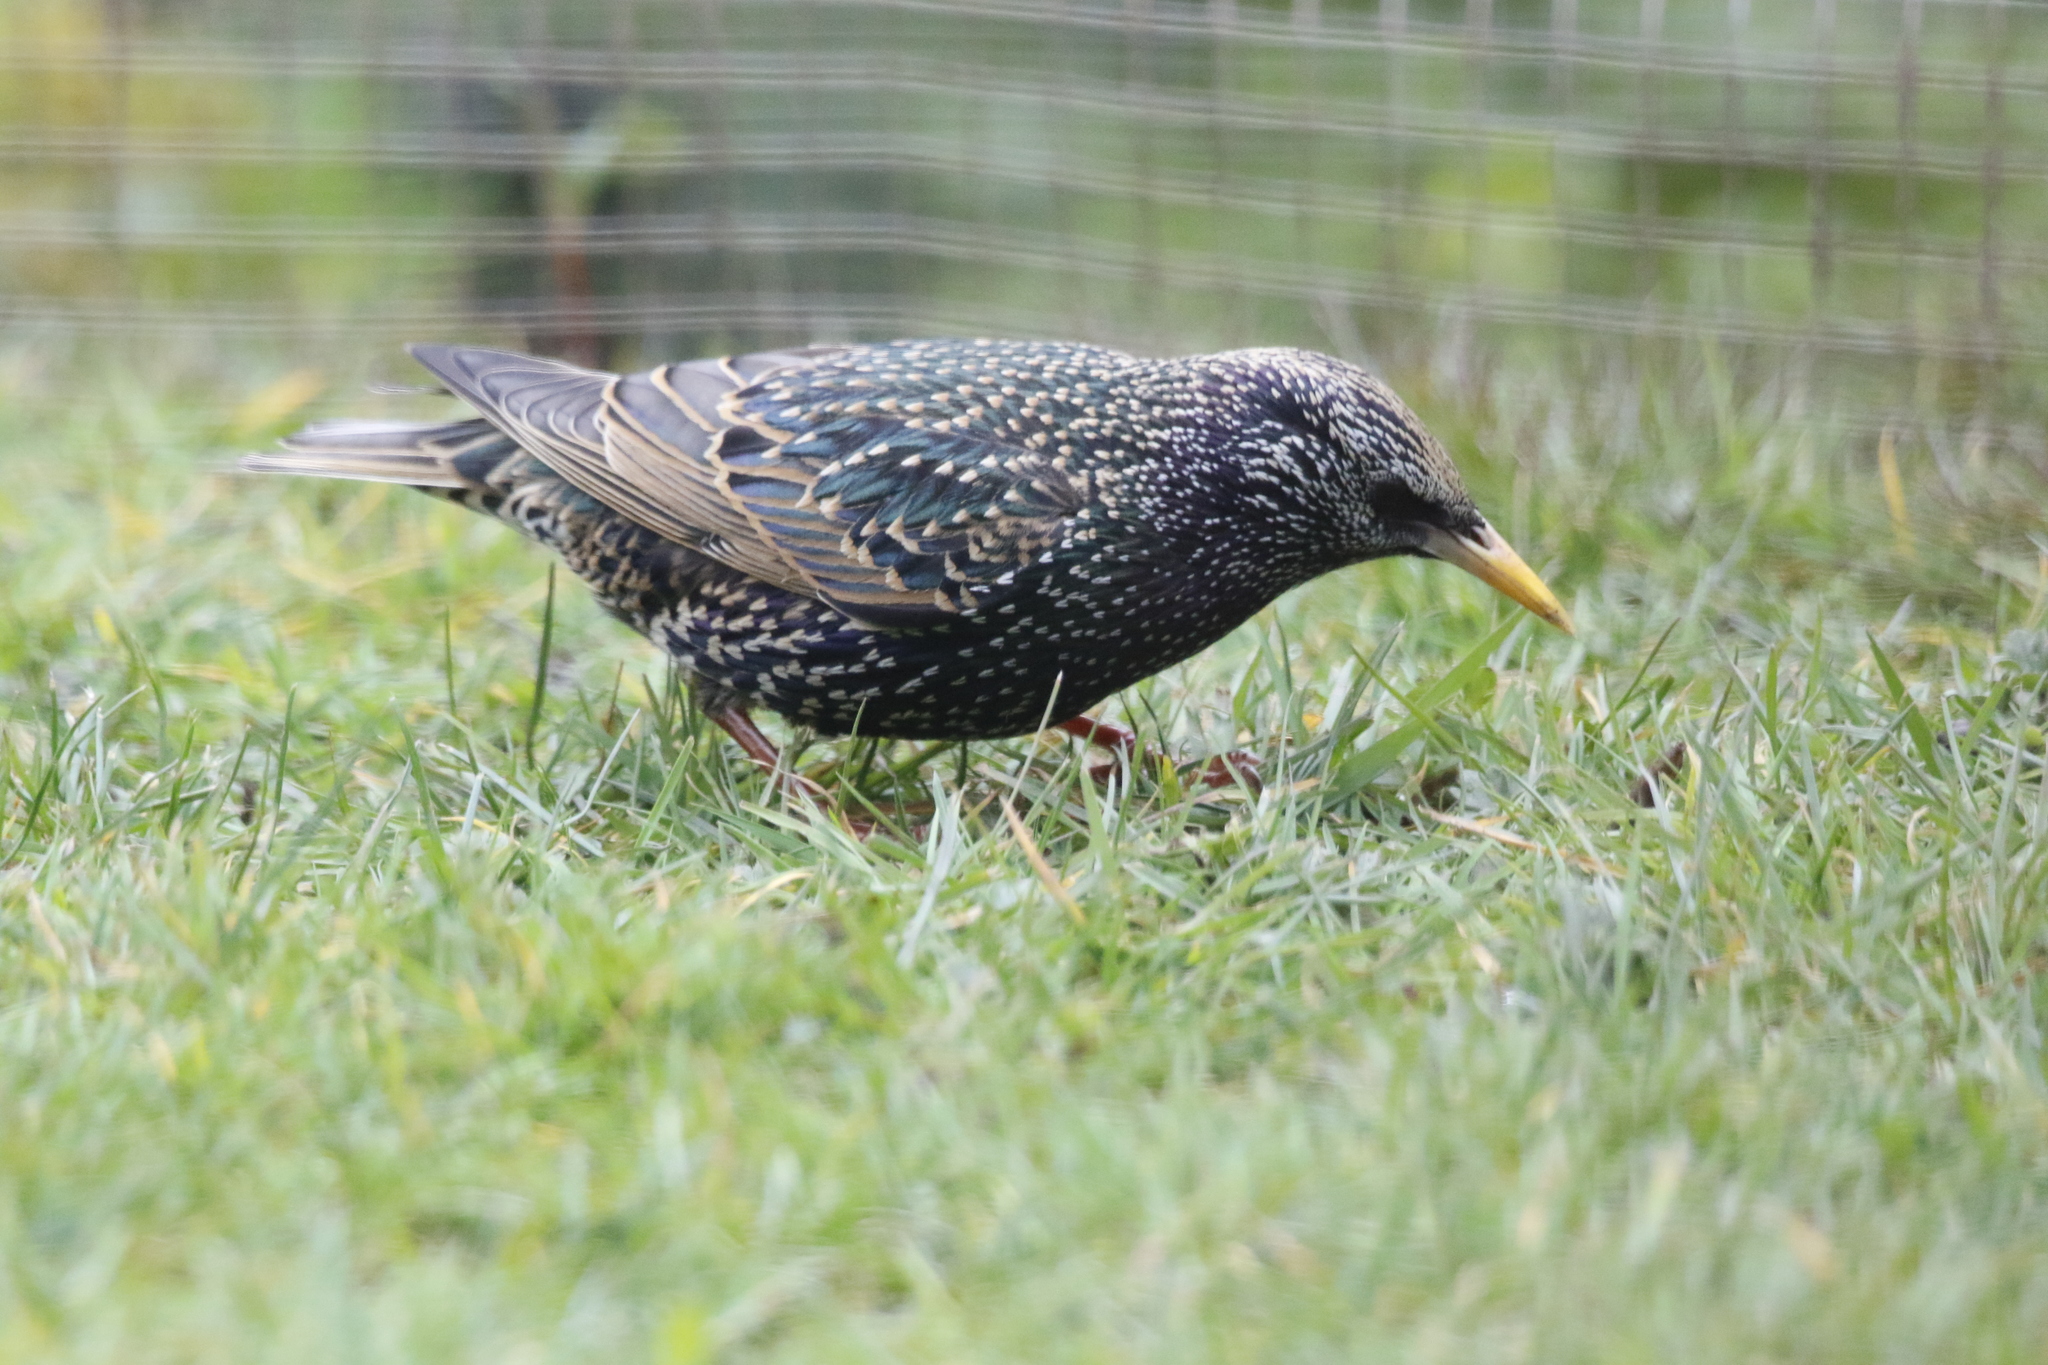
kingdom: Animalia
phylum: Chordata
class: Aves
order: Passeriformes
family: Sturnidae
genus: Sturnus
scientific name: Sturnus vulgaris
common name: Common starling
